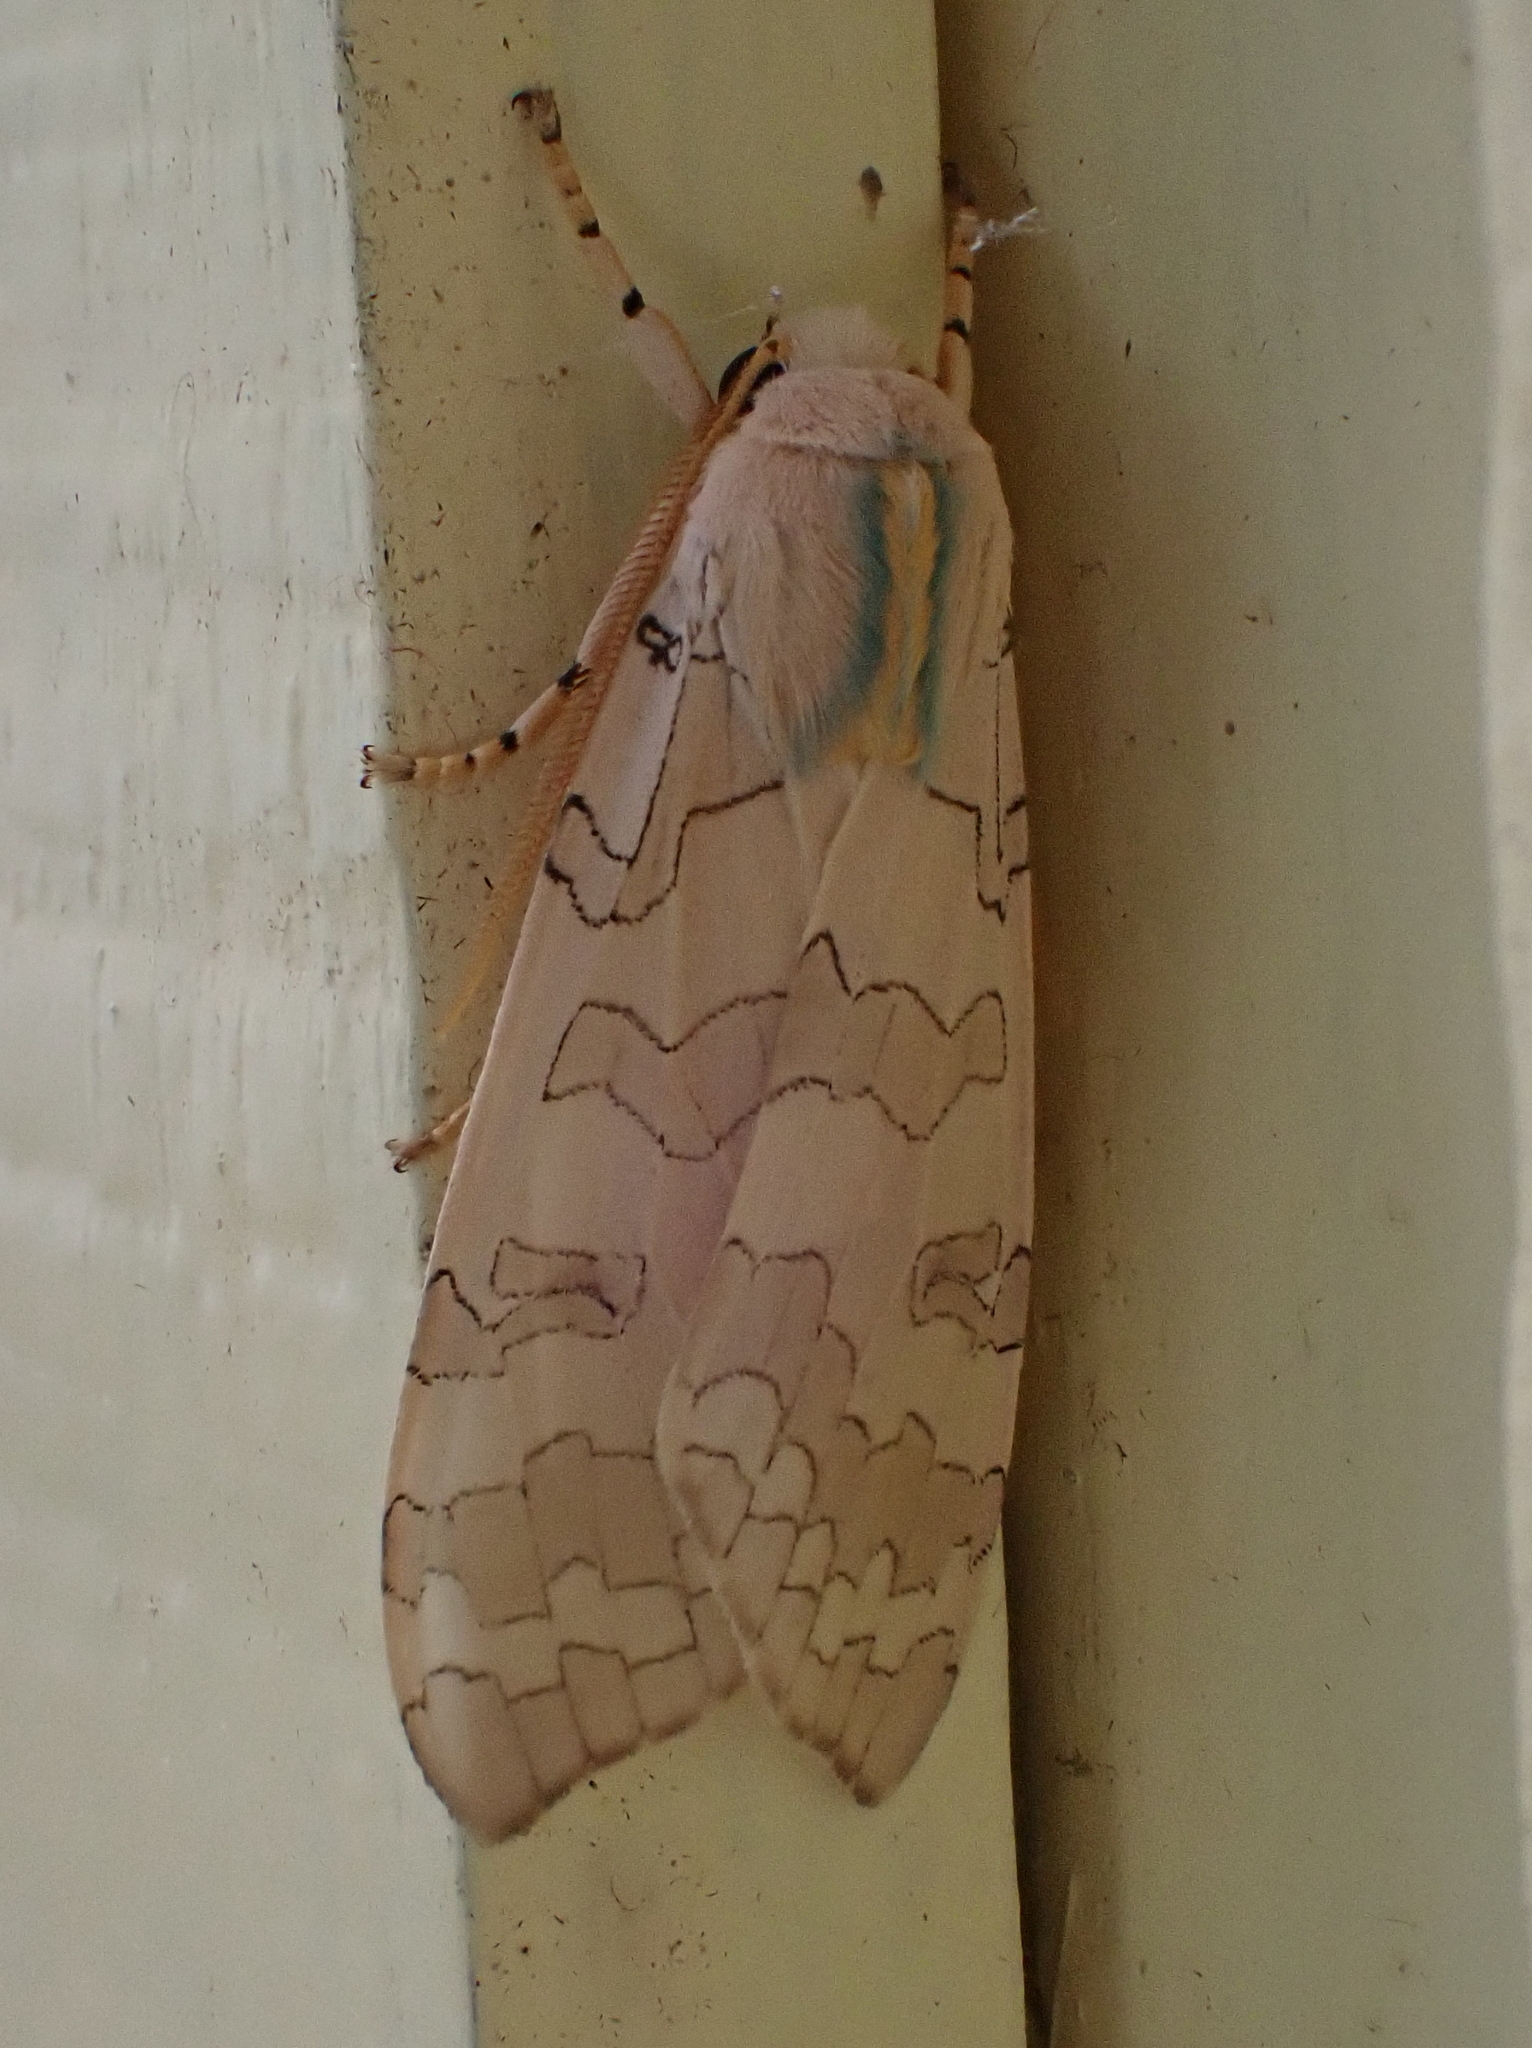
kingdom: Animalia
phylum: Arthropoda
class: Insecta
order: Lepidoptera
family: Erebidae
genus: Halysidota
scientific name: Halysidota tessellaris
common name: Banded tussock moth
